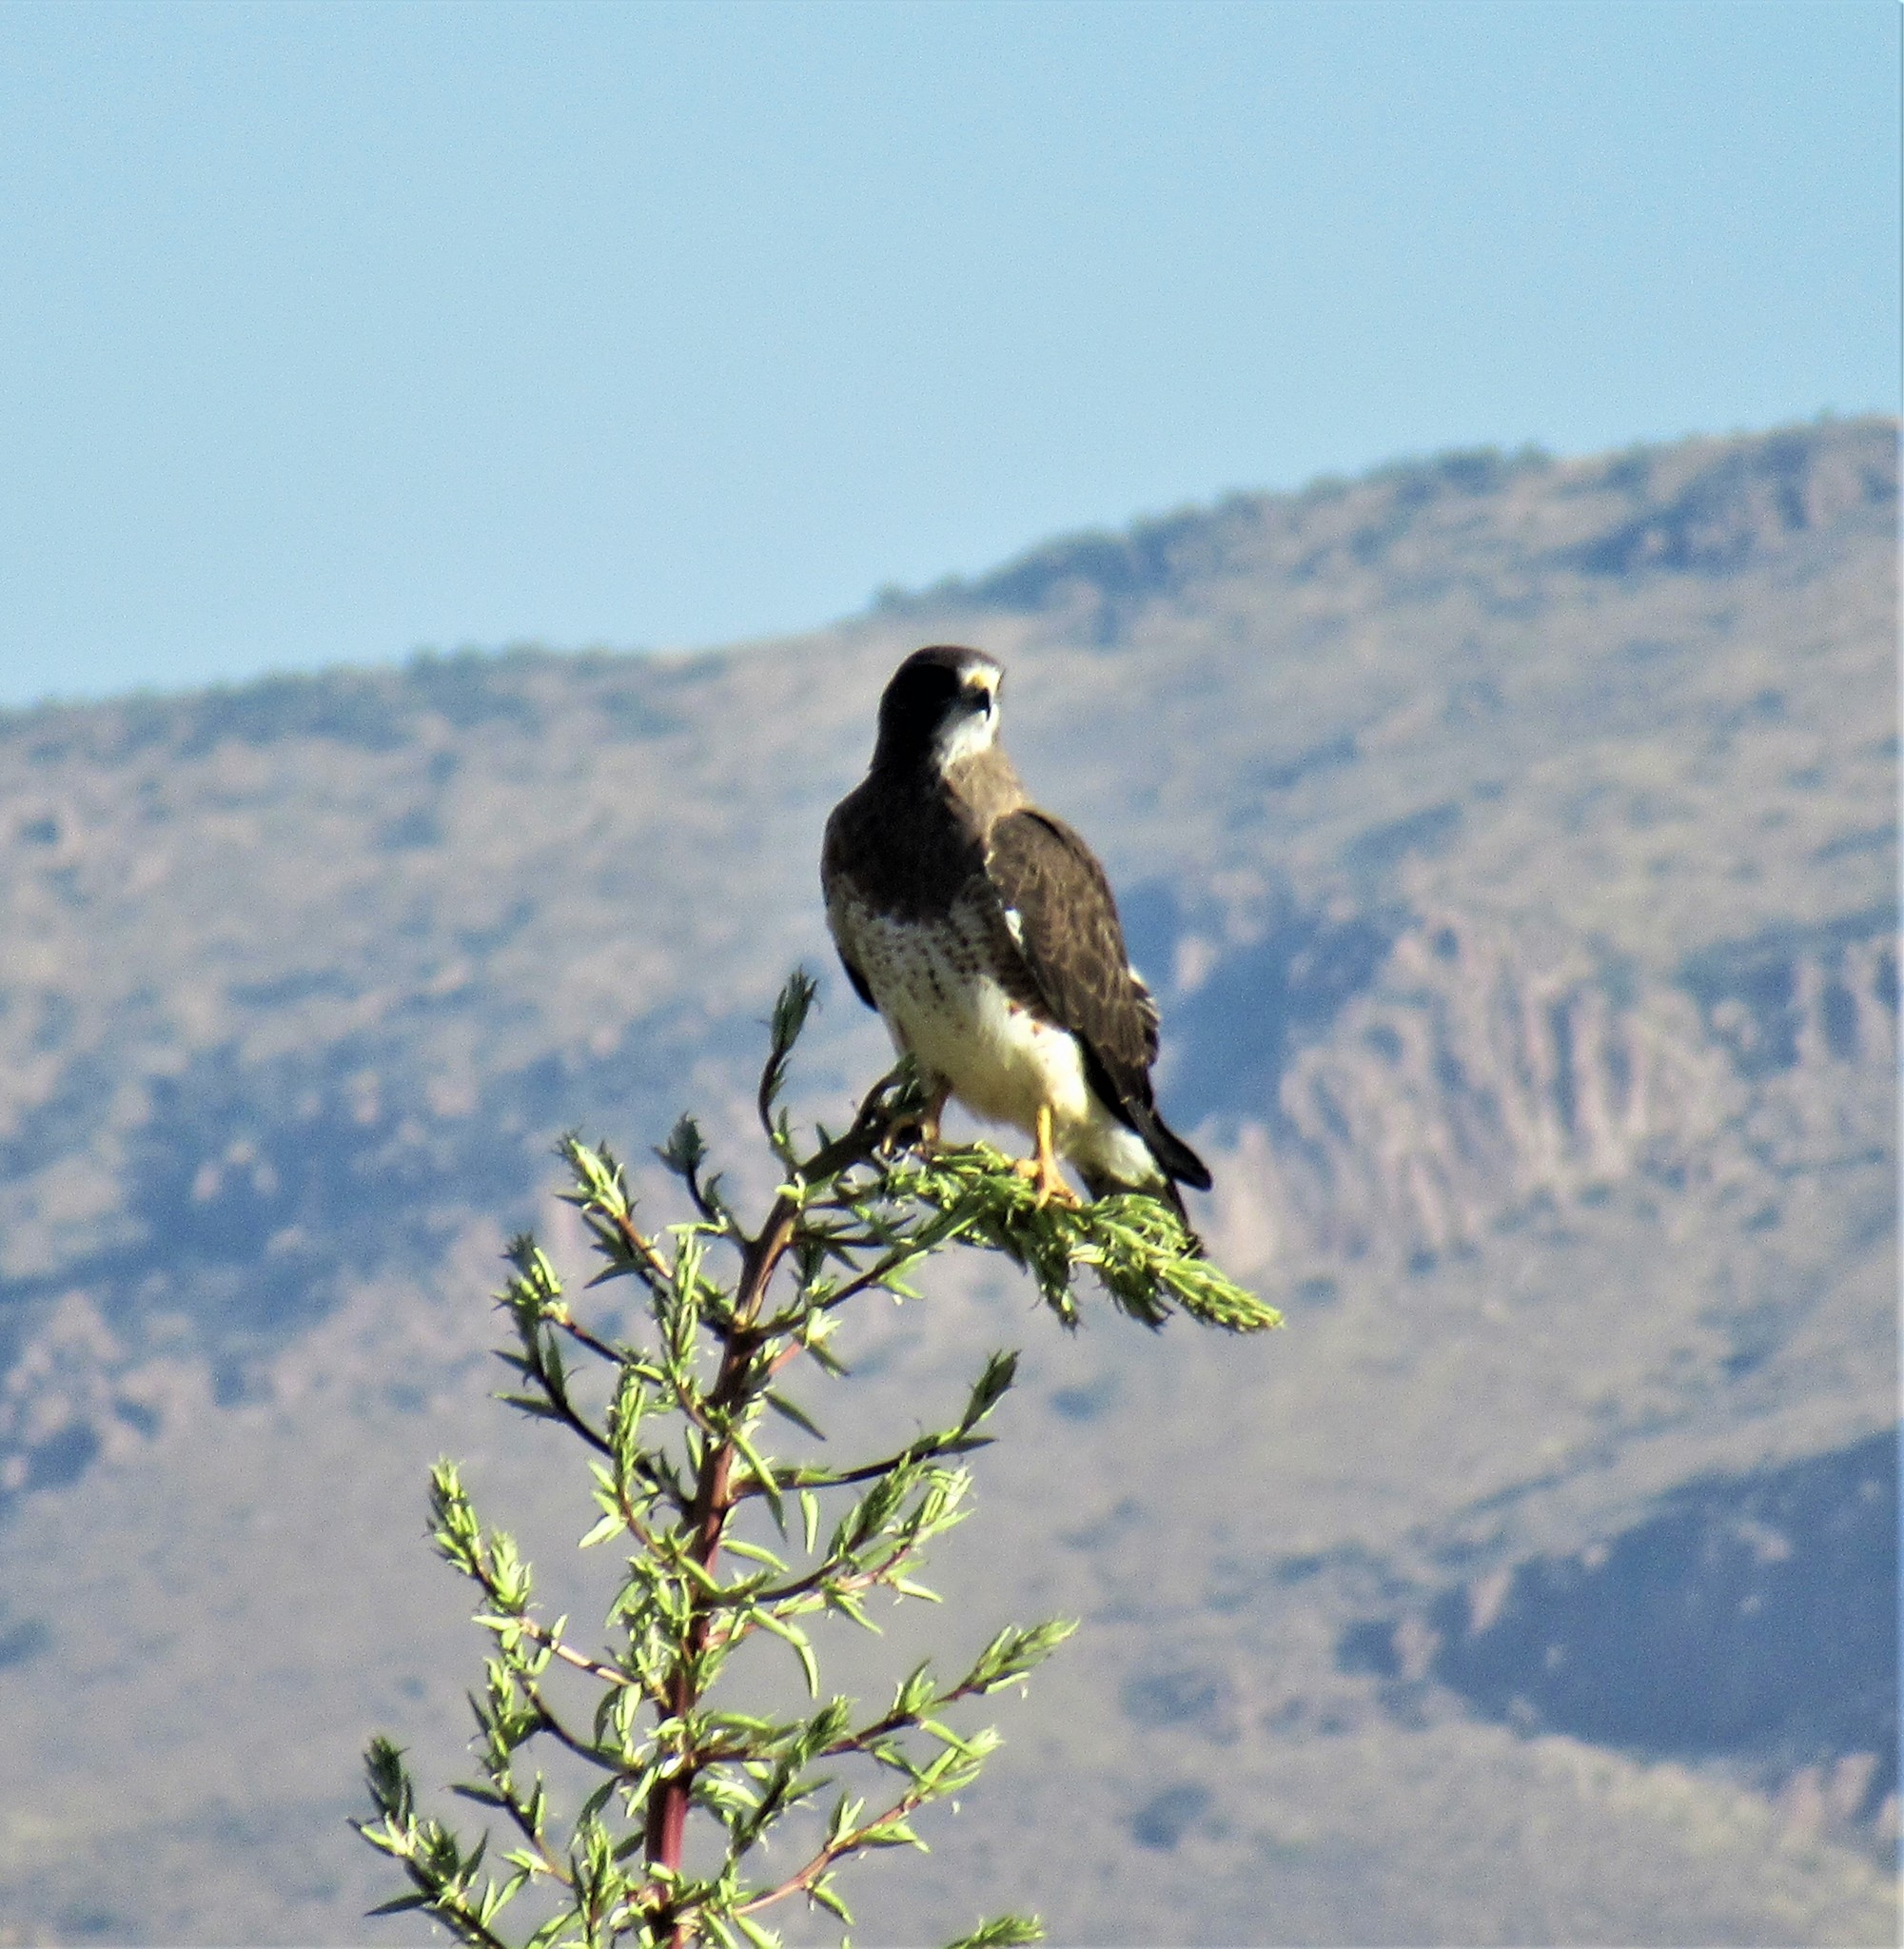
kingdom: Animalia
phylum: Chordata
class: Aves
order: Accipitriformes
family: Accipitridae
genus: Buteo
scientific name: Buteo swainsoni
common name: Swainson's hawk
